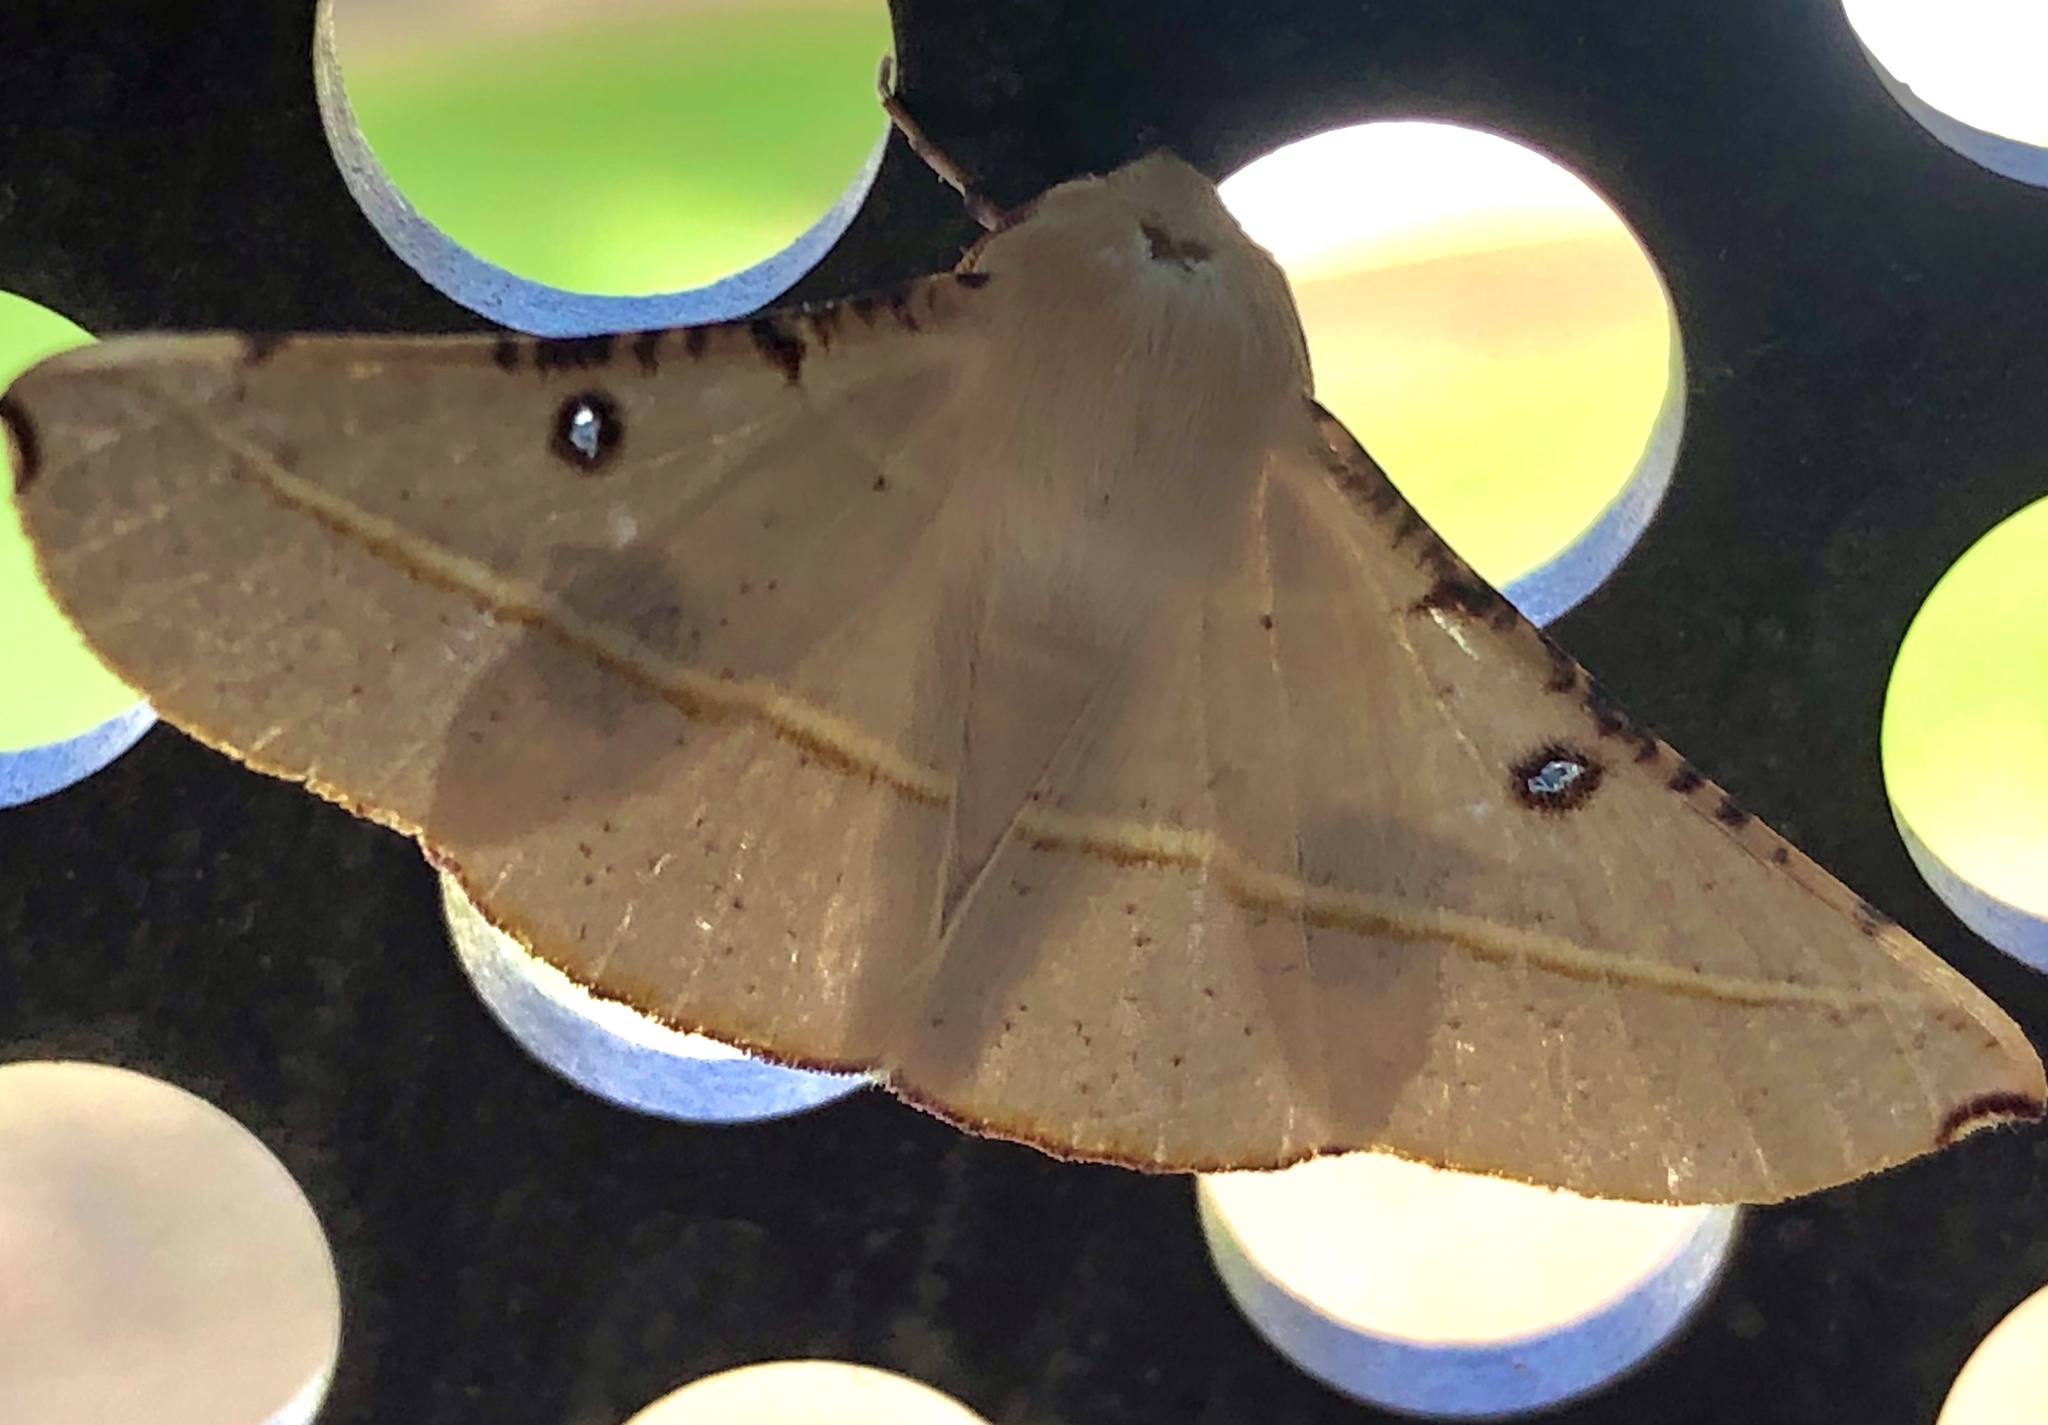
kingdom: Animalia
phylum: Arthropoda
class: Insecta
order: Lepidoptera
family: Geometridae
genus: Oenochroma
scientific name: Oenochroma pallida
